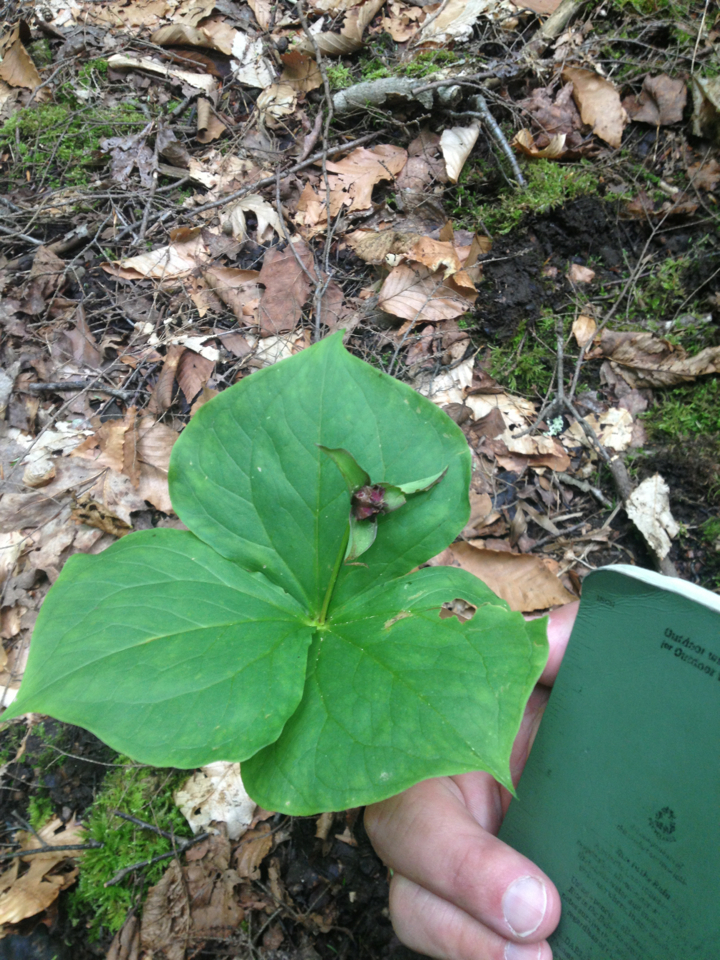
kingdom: Plantae
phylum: Tracheophyta
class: Liliopsida
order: Liliales
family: Melanthiaceae
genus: Trillium
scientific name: Trillium erectum
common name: Purple trillium
